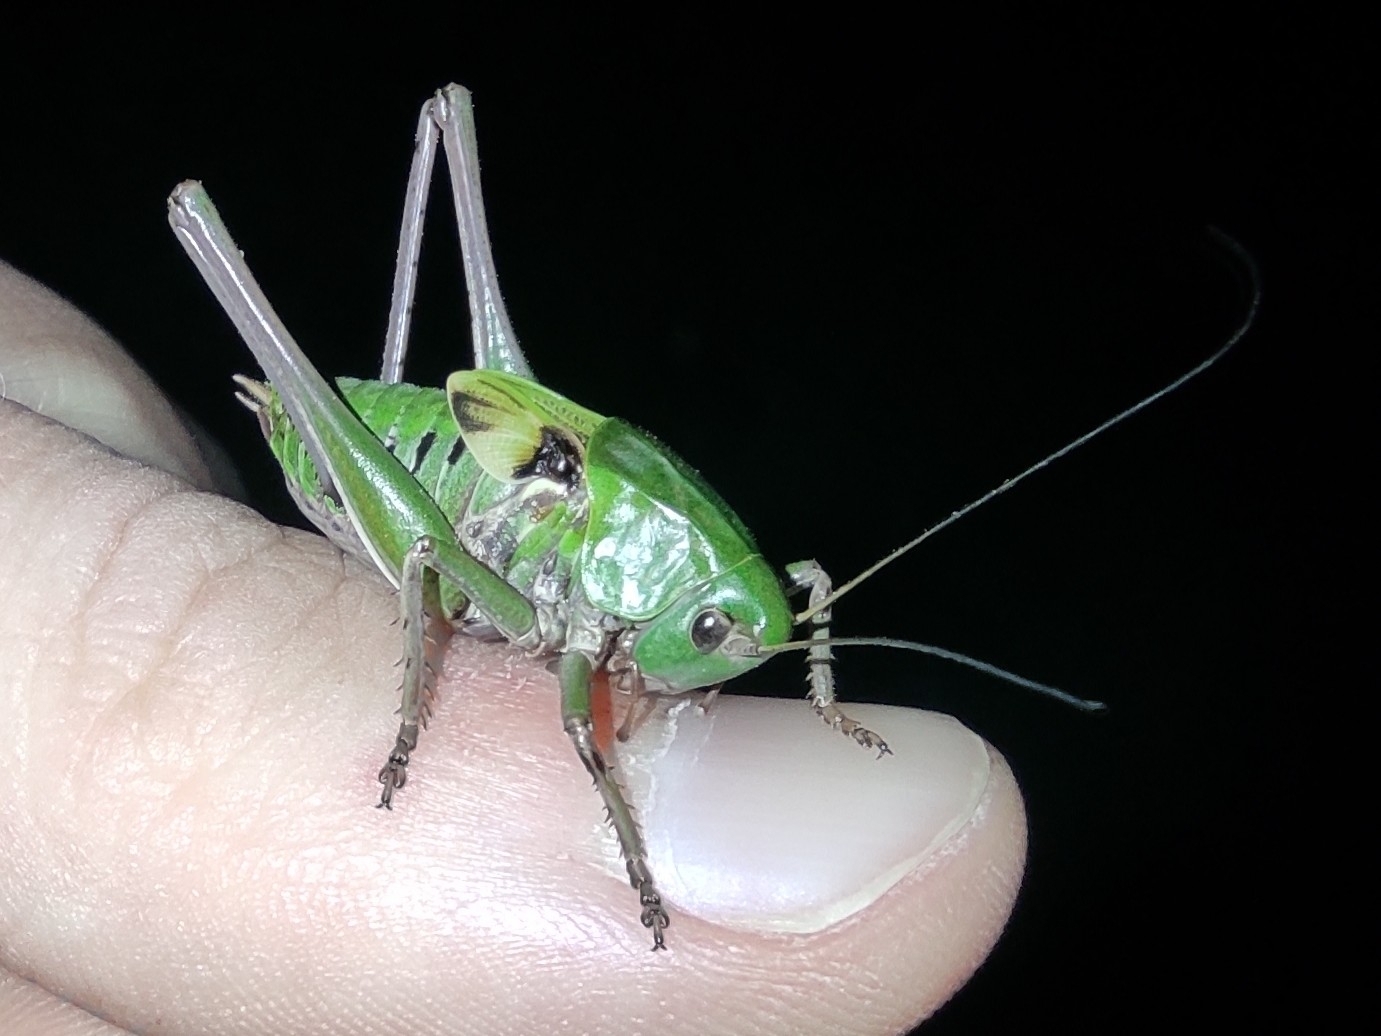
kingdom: Animalia
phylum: Arthropoda
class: Insecta
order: Orthoptera
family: Tettigoniidae
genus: Decticus
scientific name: Decticus verrucivorus
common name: Wart-biter
